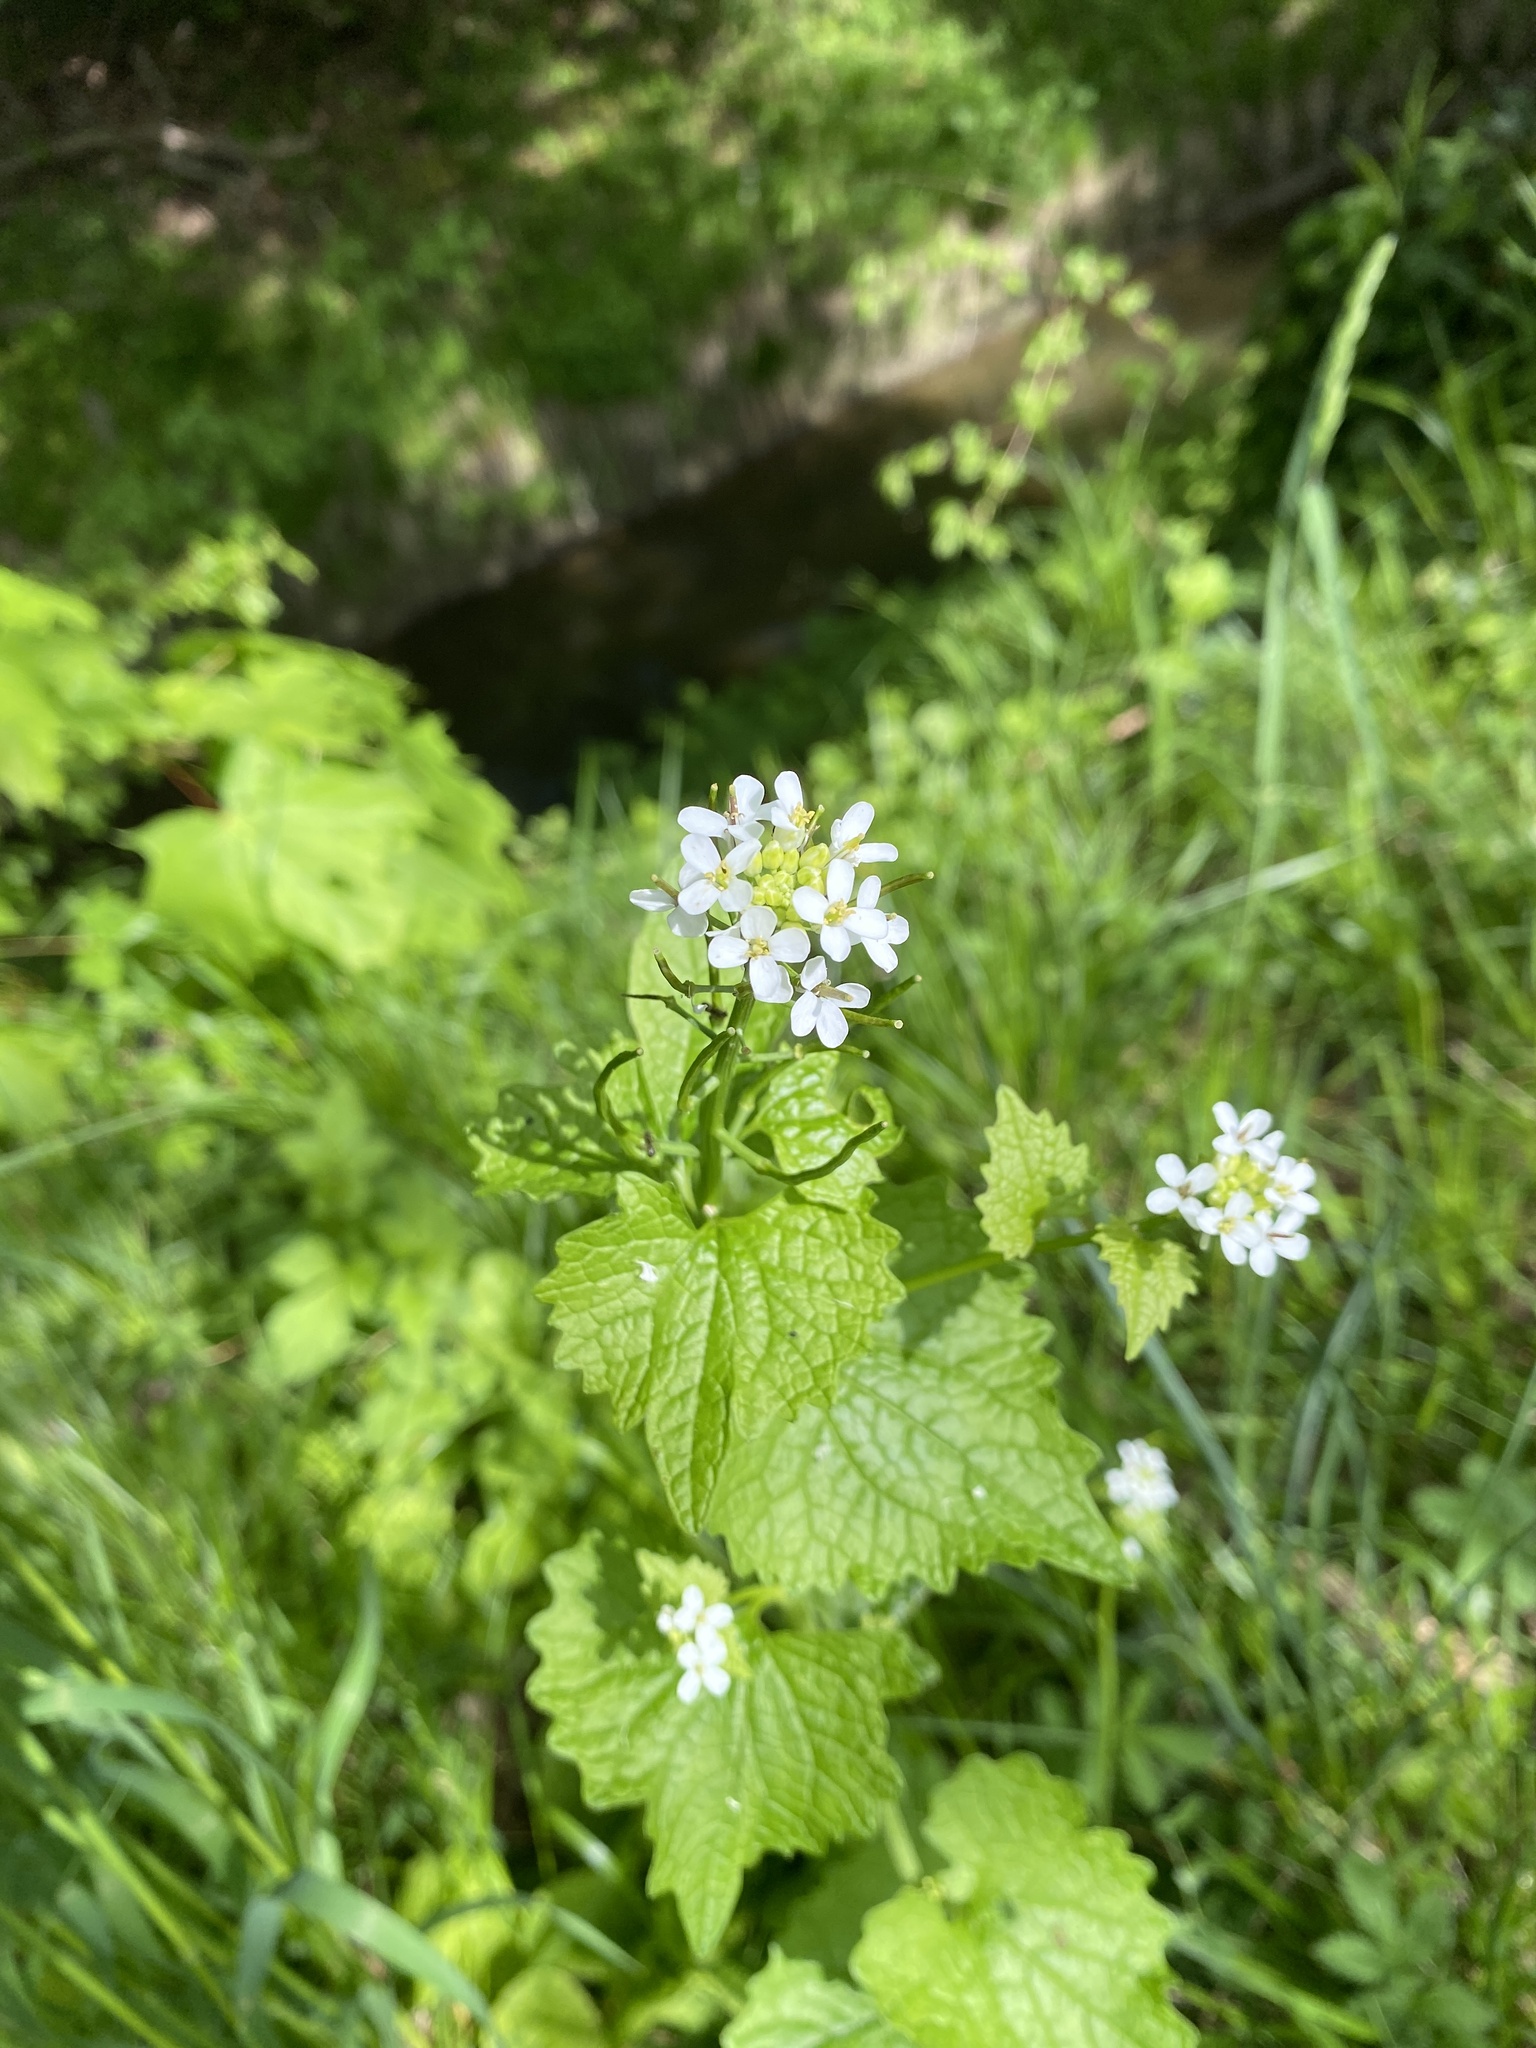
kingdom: Plantae
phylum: Tracheophyta
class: Magnoliopsida
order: Brassicales
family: Brassicaceae
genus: Alliaria
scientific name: Alliaria petiolata
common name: Garlic mustard
